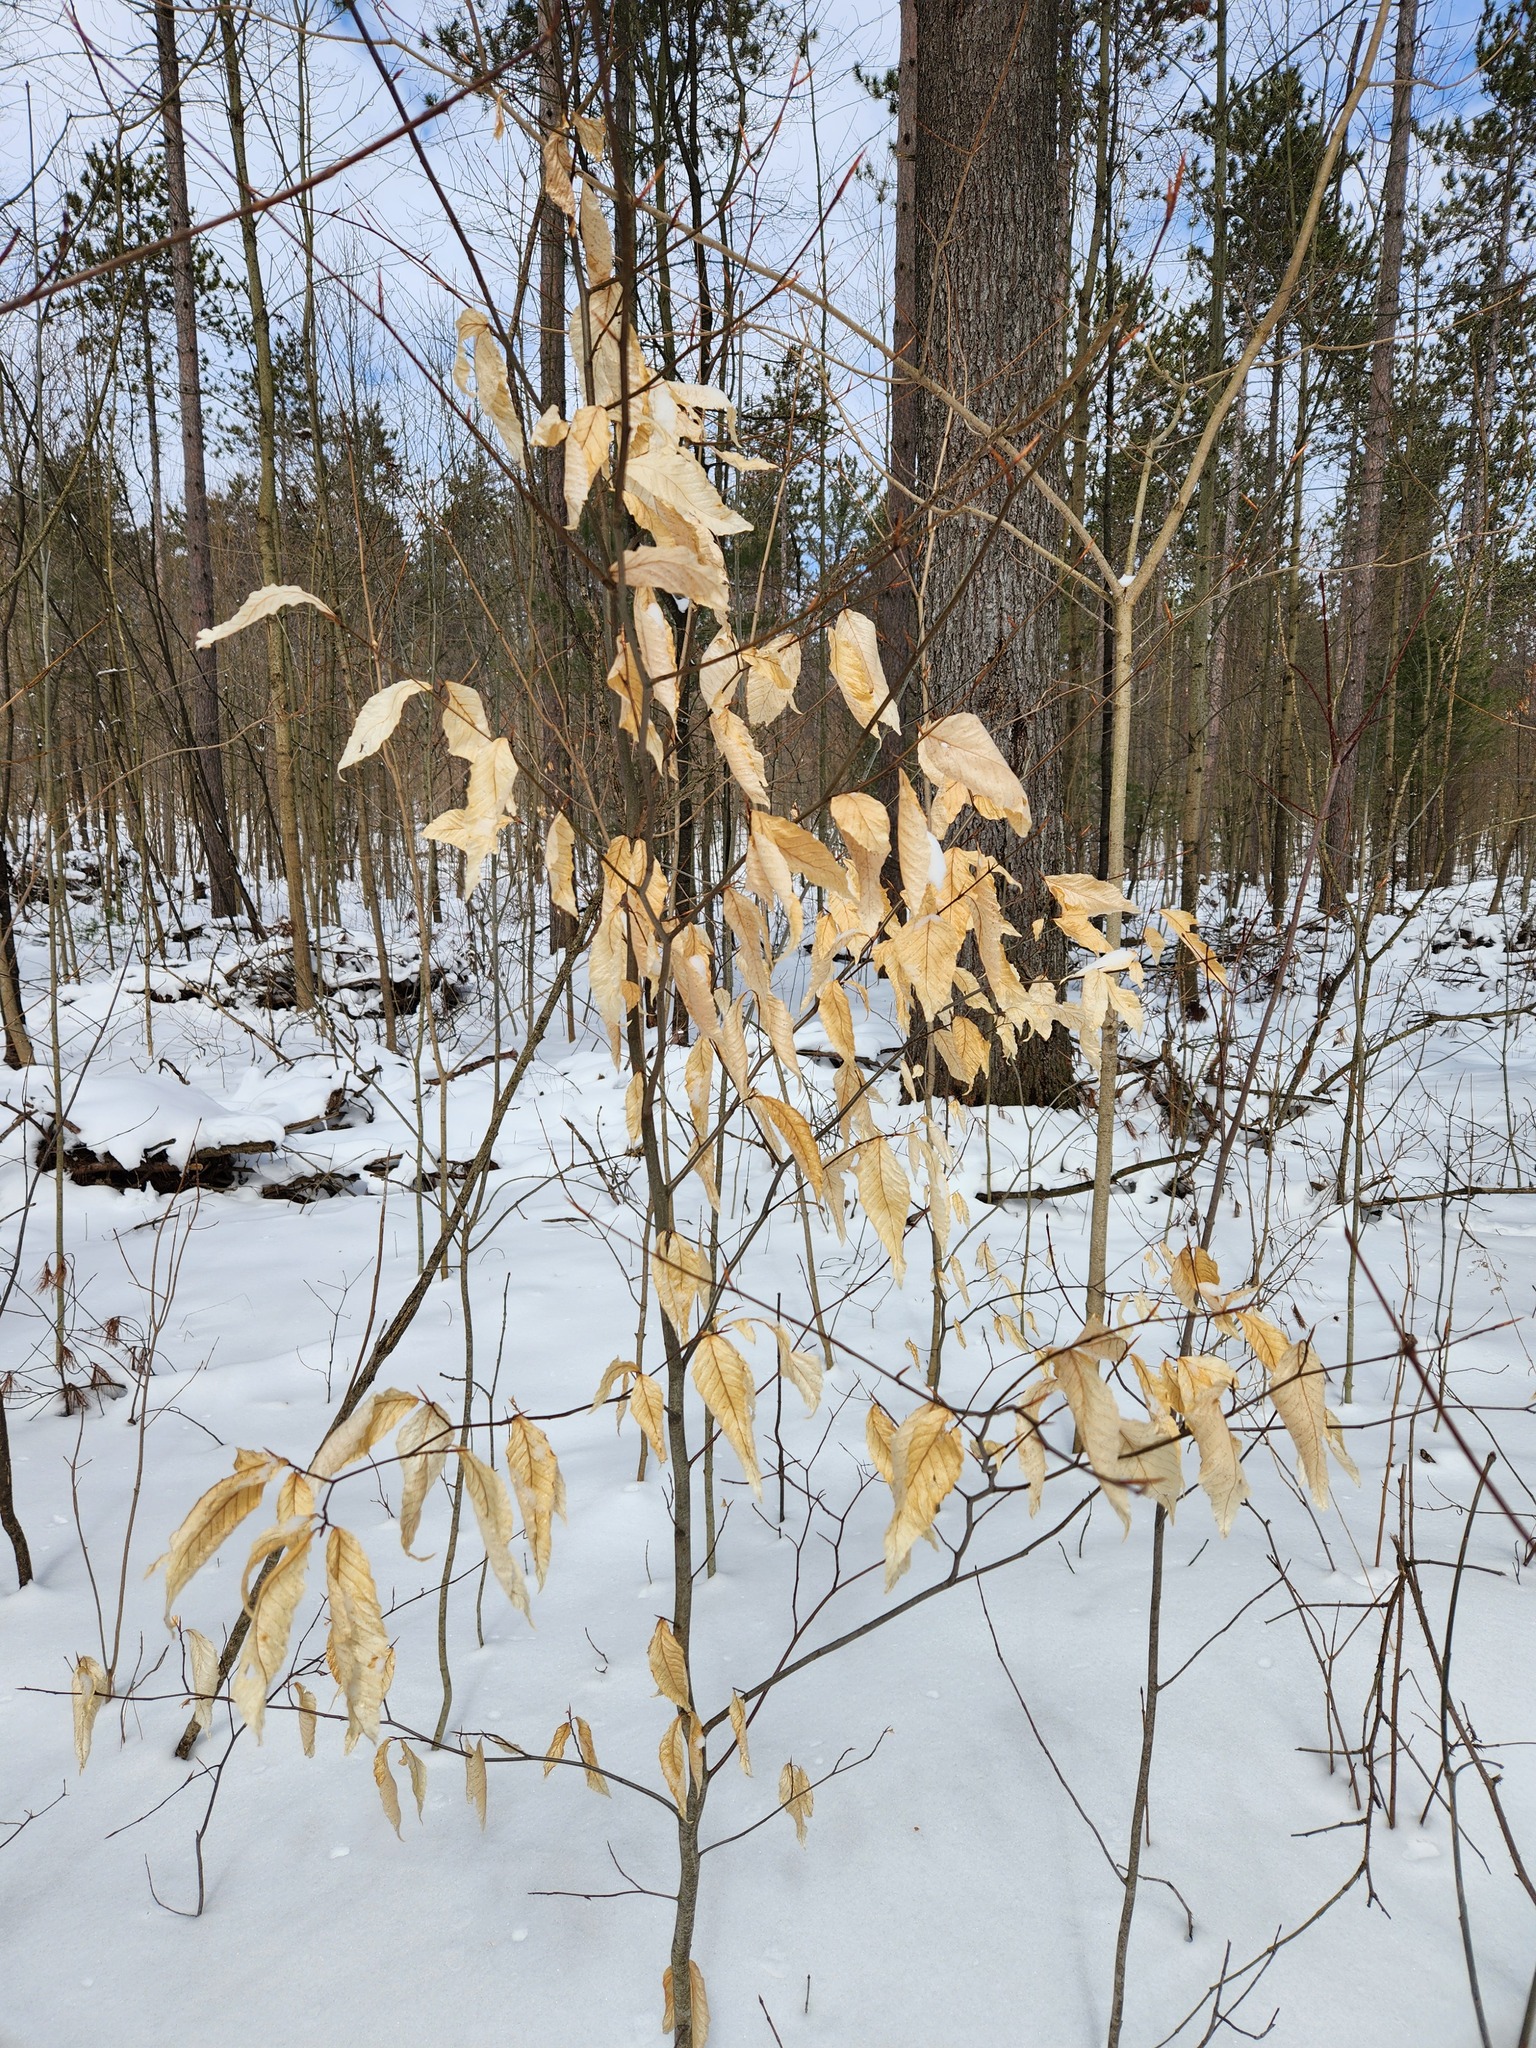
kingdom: Plantae
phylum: Tracheophyta
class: Magnoliopsida
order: Fagales
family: Fagaceae
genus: Fagus
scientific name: Fagus grandifolia
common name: American beech
